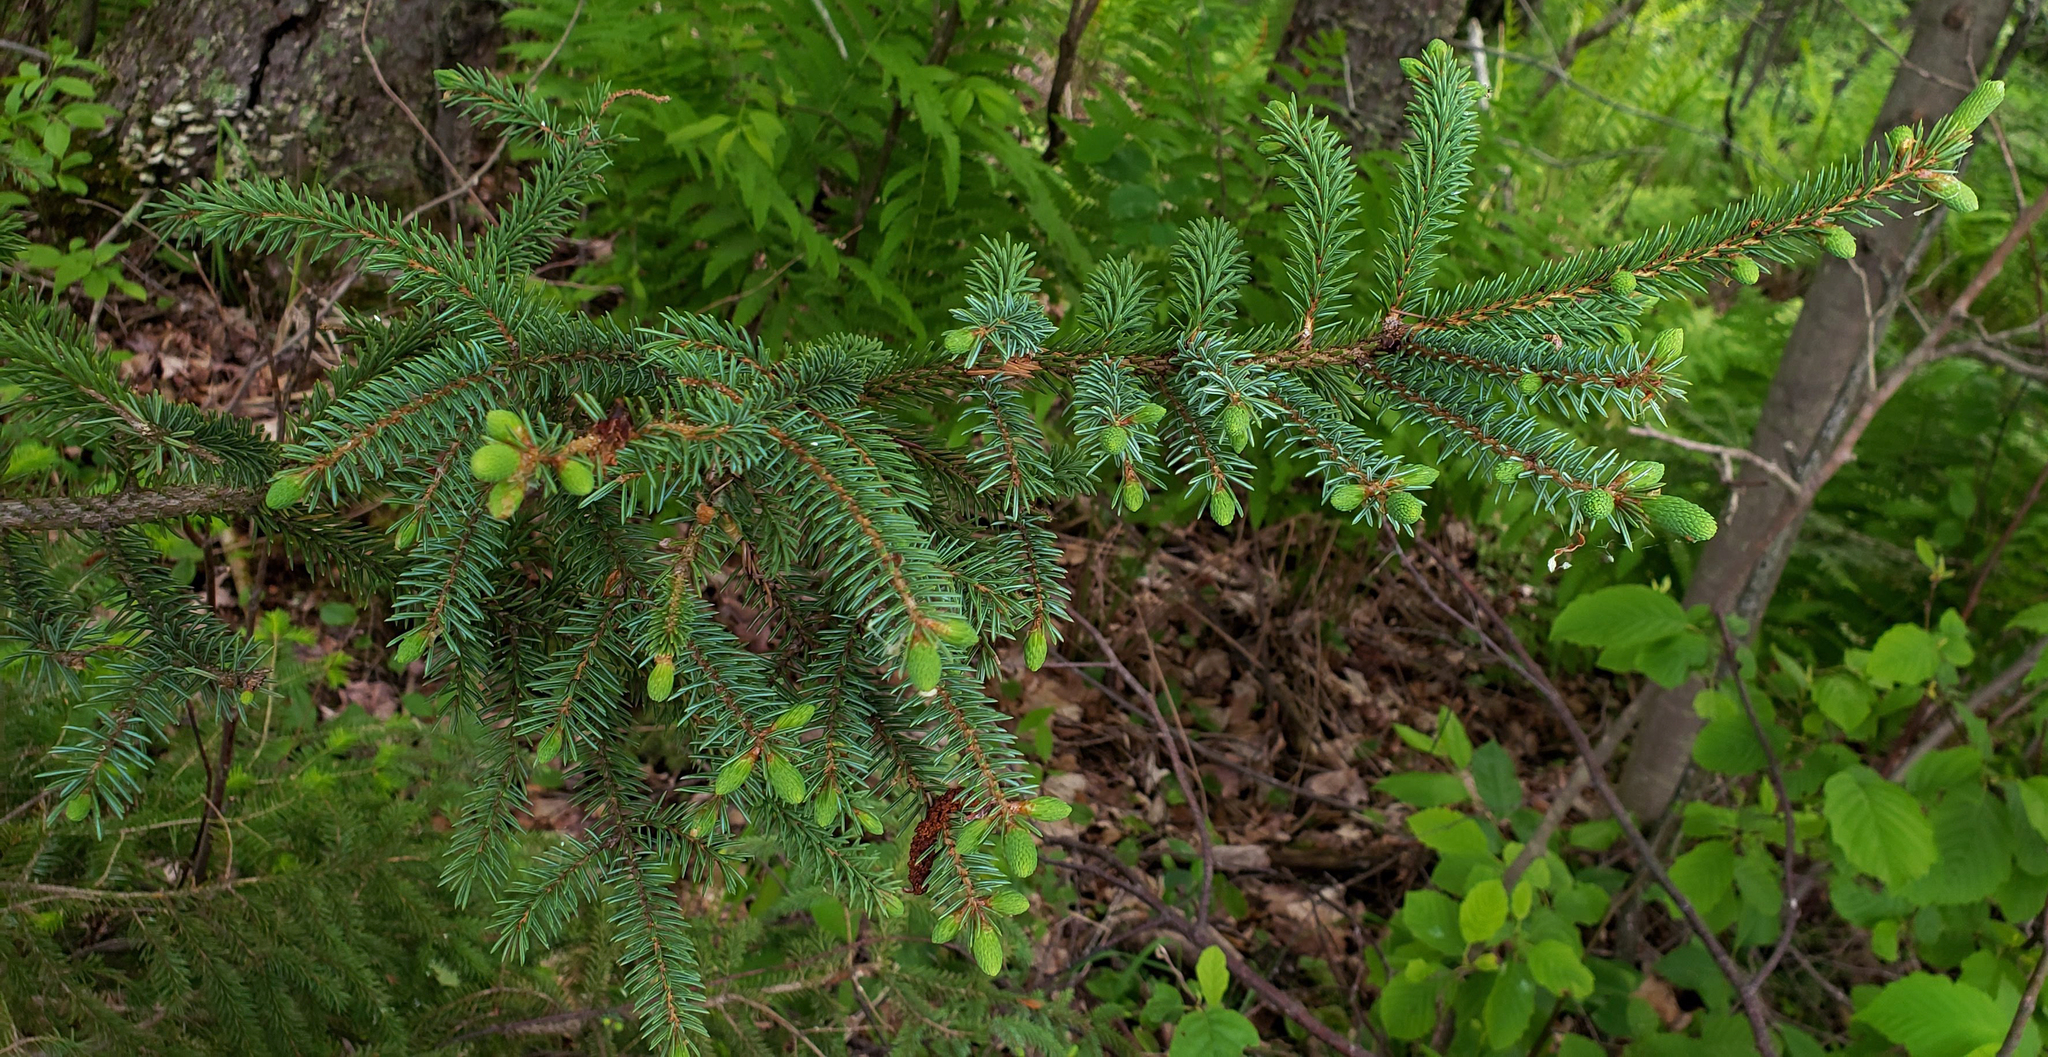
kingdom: Plantae
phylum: Tracheophyta
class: Pinopsida
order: Pinales
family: Pinaceae
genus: Picea
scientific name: Picea glauca
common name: White spruce
